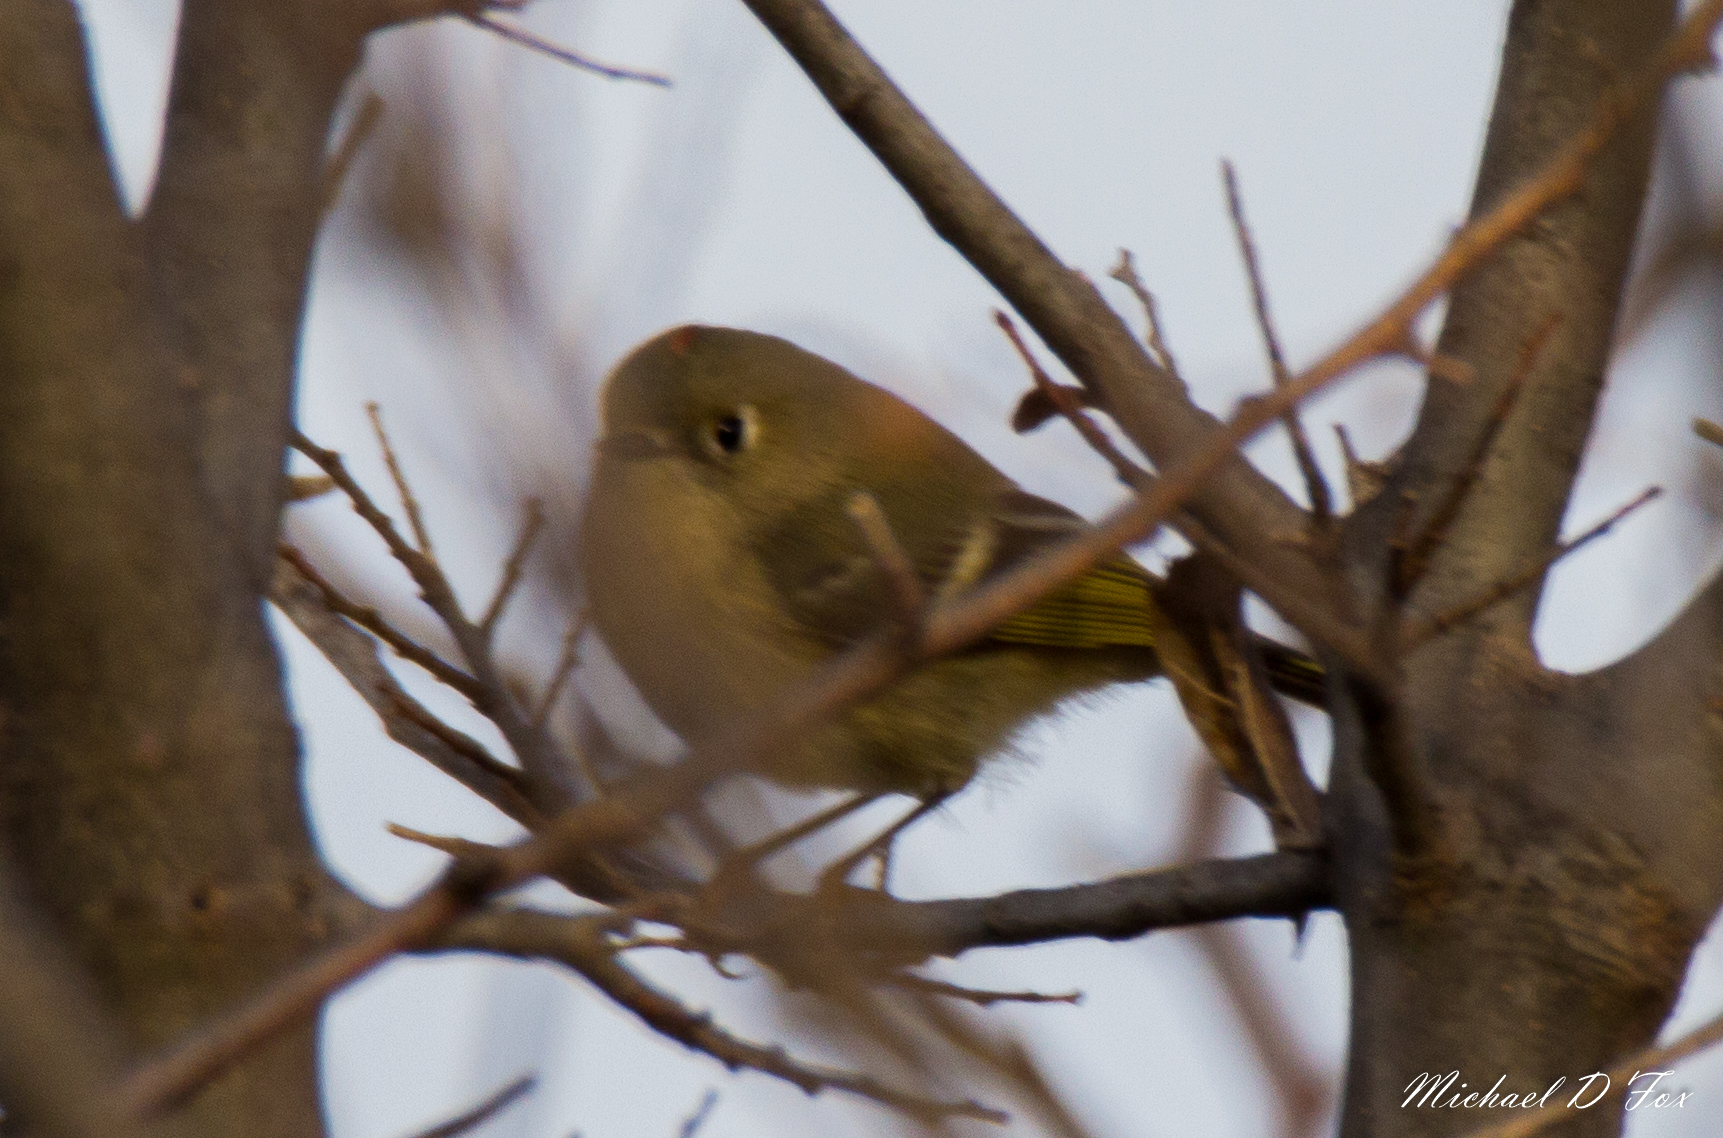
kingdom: Animalia
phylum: Chordata
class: Aves
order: Passeriformes
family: Regulidae
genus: Regulus
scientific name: Regulus calendula
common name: Ruby-crowned kinglet
